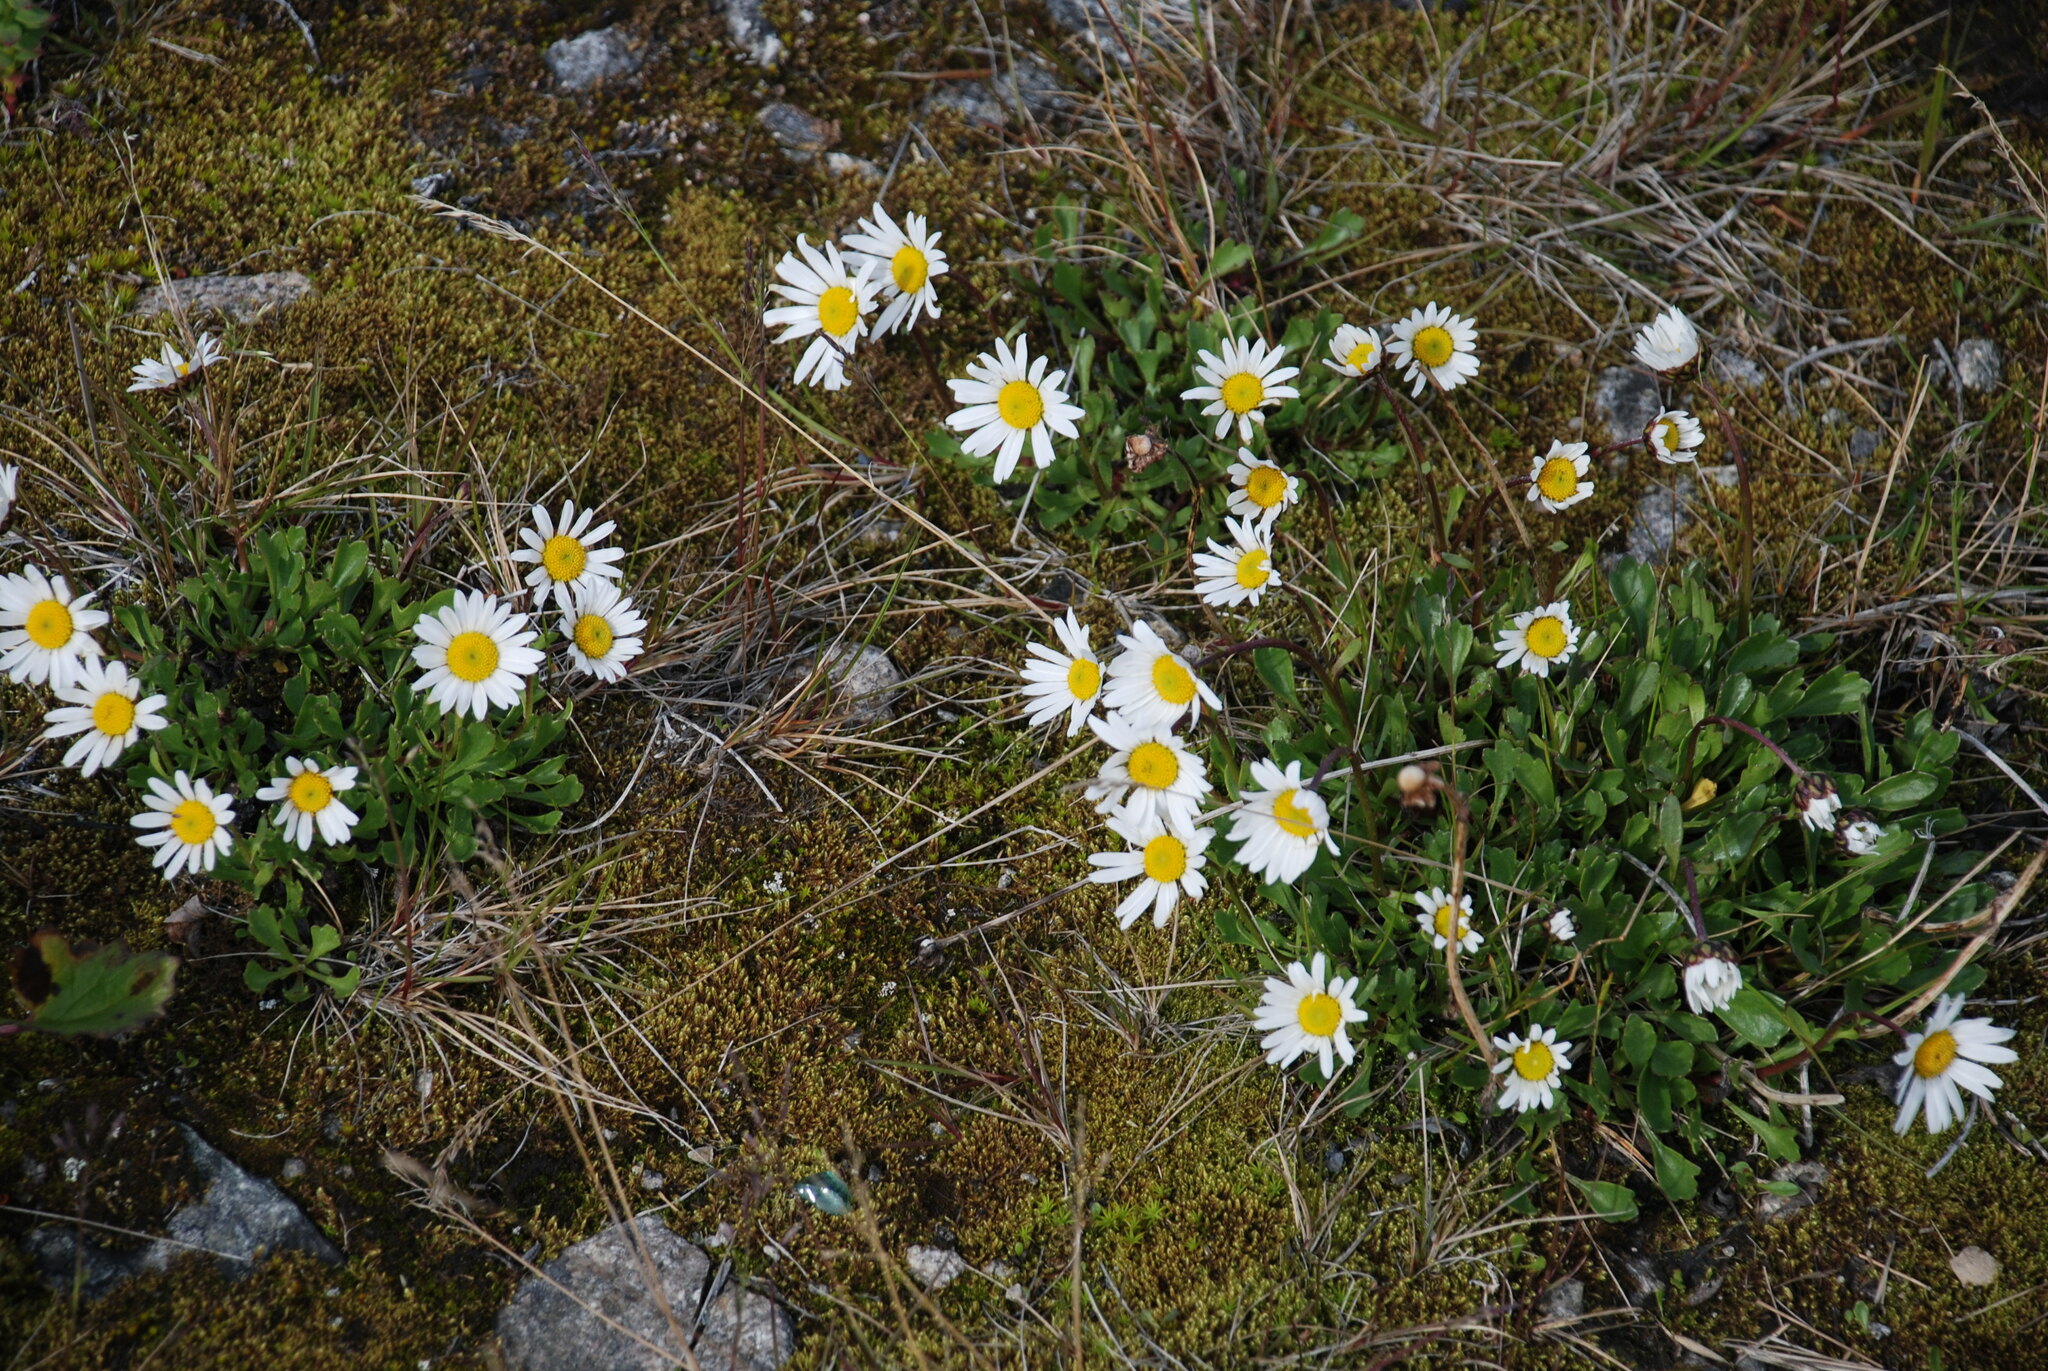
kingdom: Plantae
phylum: Tracheophyta
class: Magnoliopsida
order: Asterales
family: Asteraceae
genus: Arctanthemum
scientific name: Arctanthemum arcticum
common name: Arctic daisy
